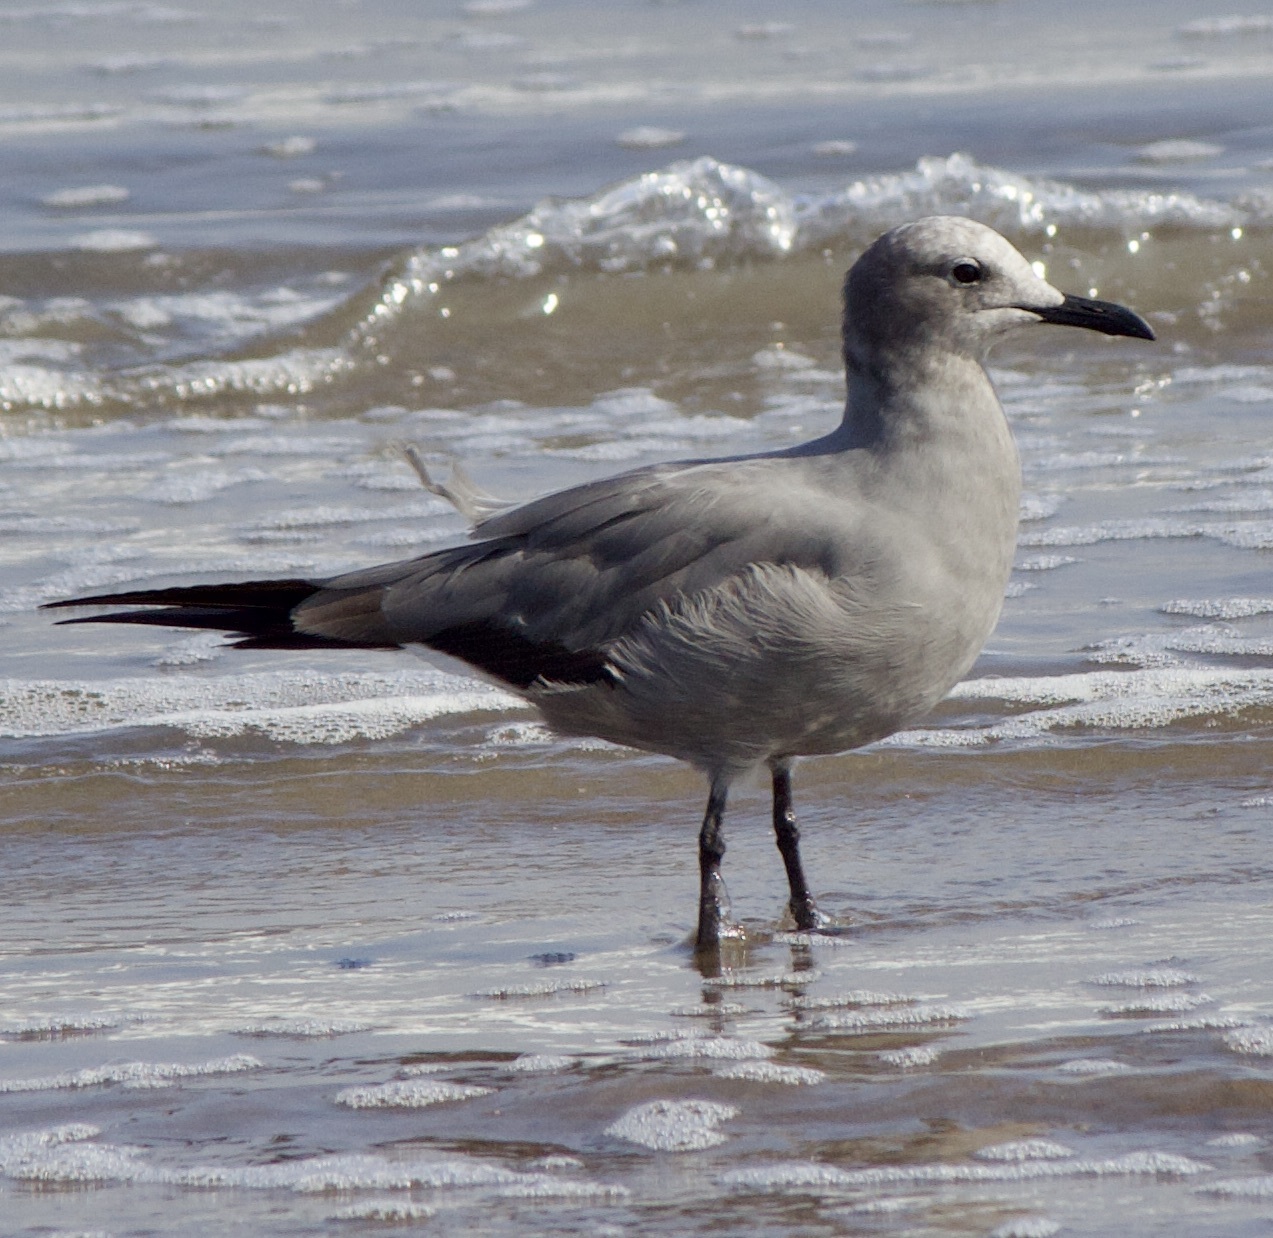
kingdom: Animalia
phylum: Chordata
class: Aves
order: Charadriiformes
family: Laridae
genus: Leucophaeus
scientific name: Leucophaeus modestus
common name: Gray gull
